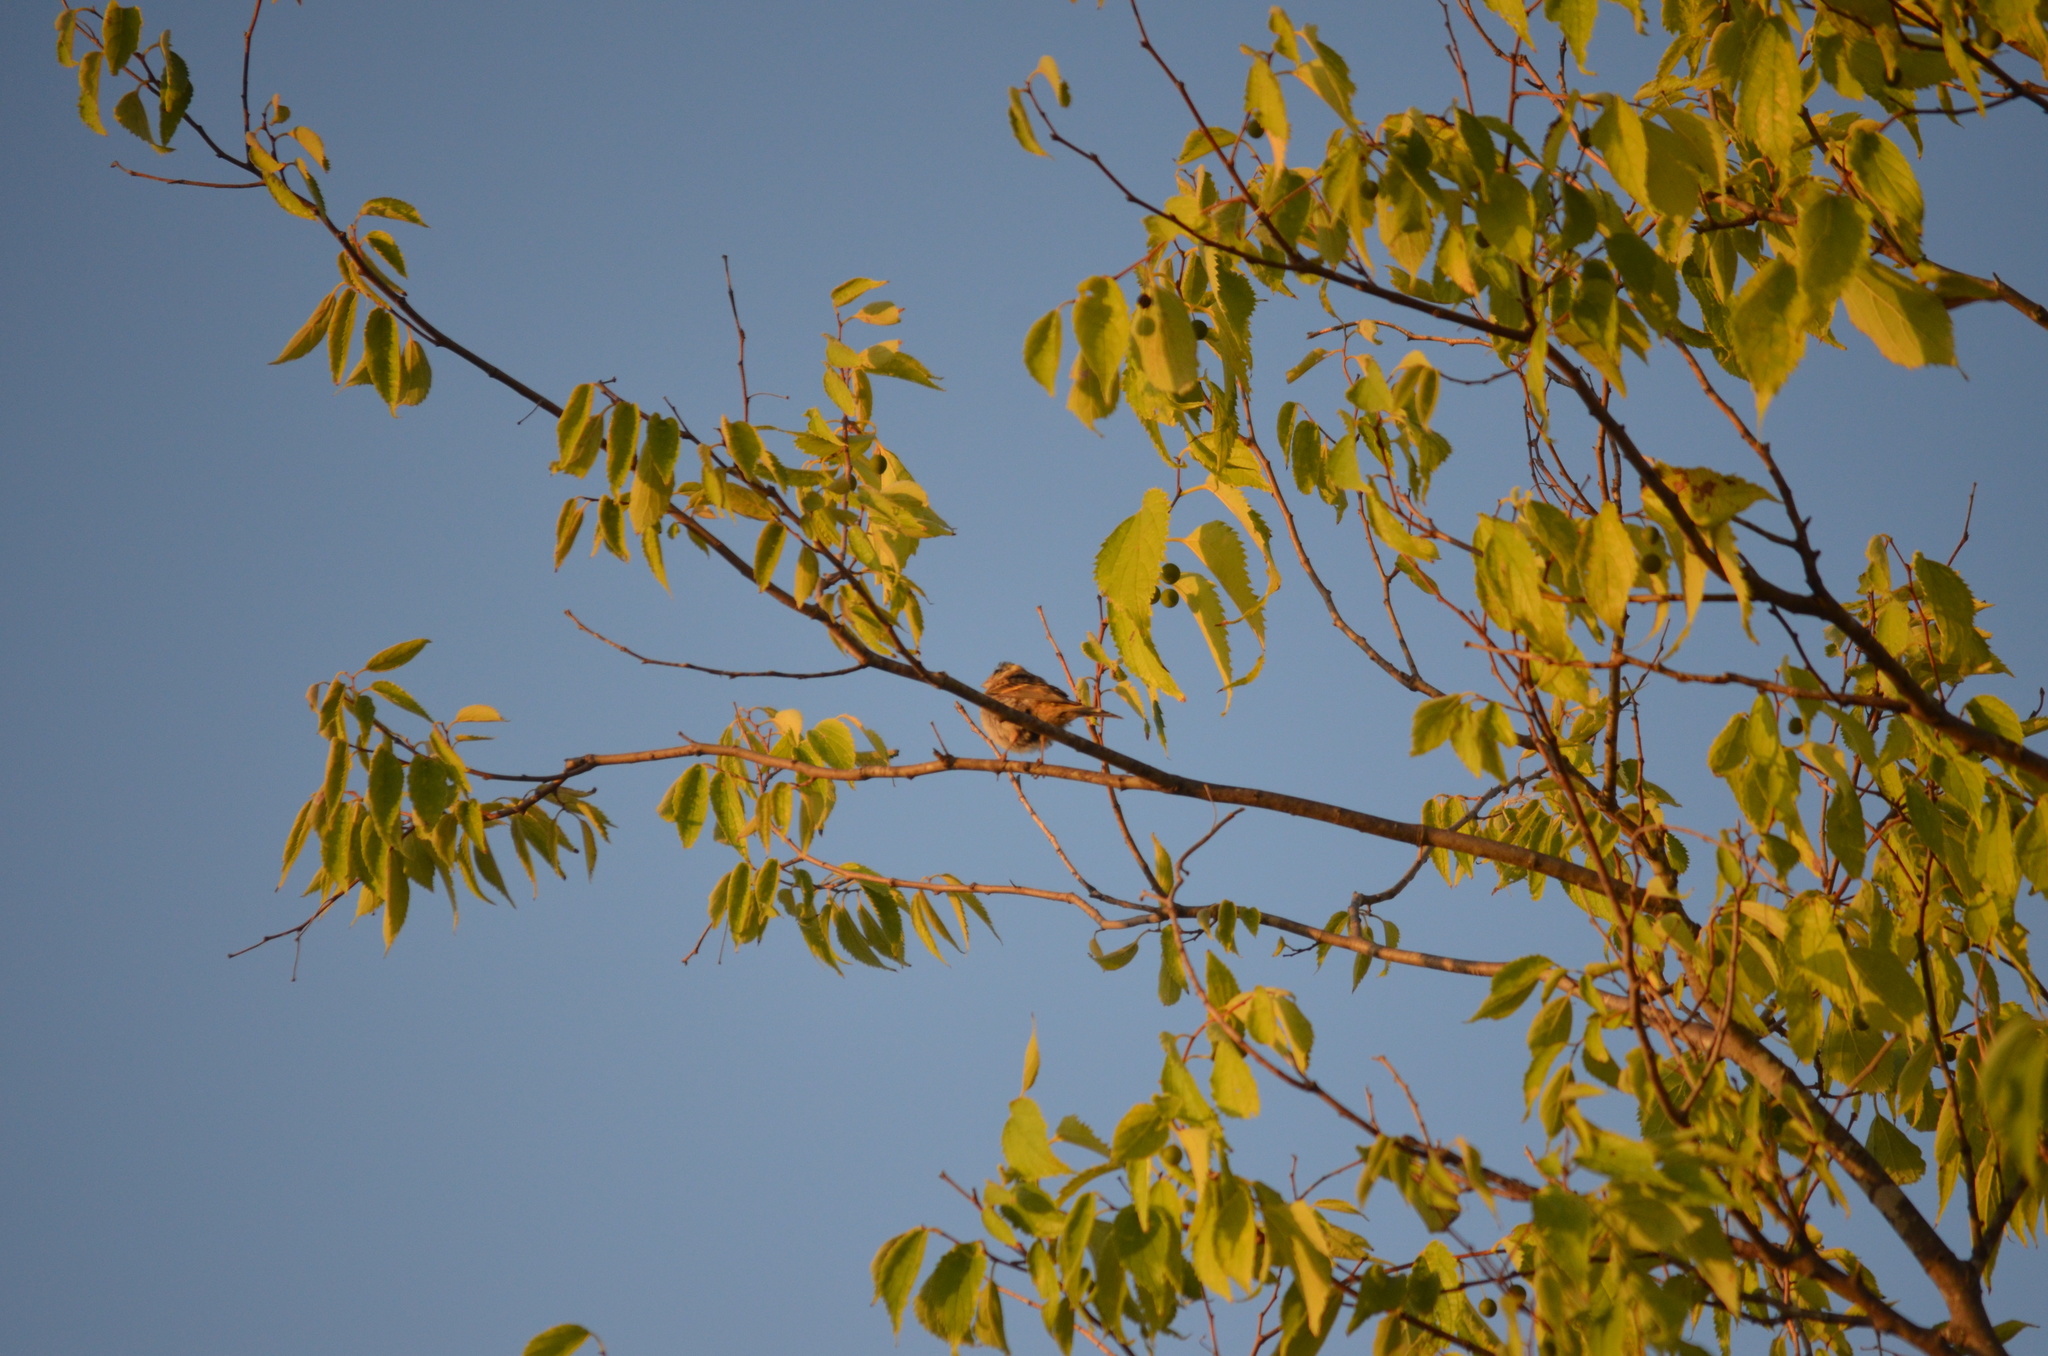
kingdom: Animalia
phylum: Chordata
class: Aves
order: Passeriformes
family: Fringillidae
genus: Serinus
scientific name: Serinus serinus
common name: European serin
